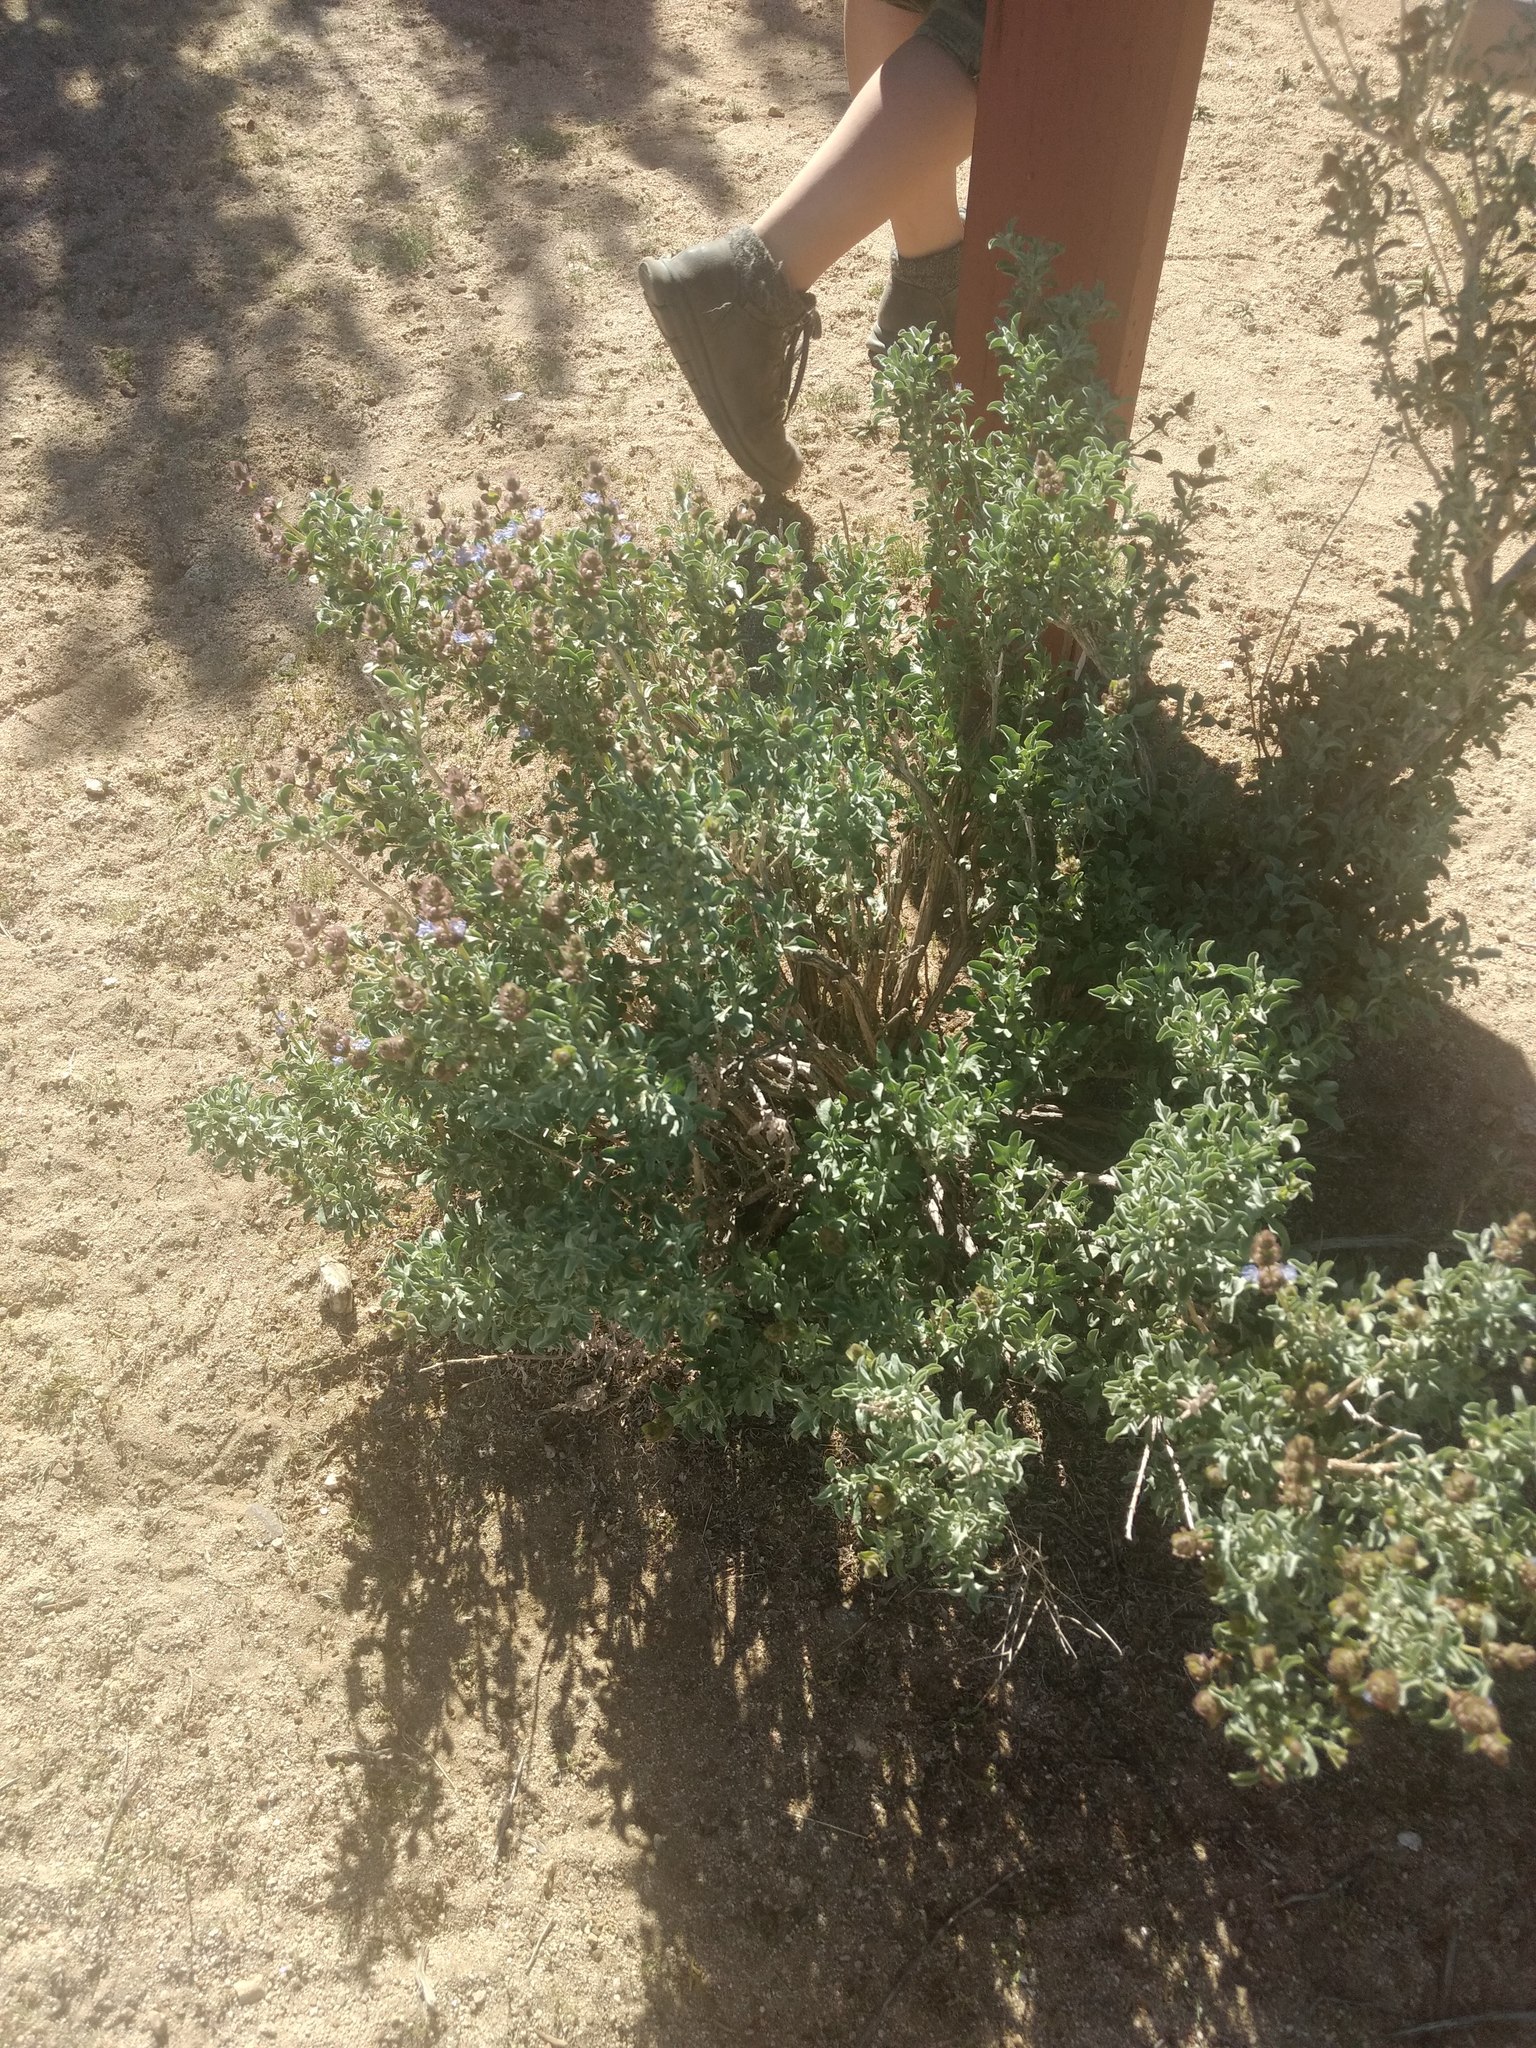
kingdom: Plantae
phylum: Tracheophyta
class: Magnoliopsida
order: Lamiales
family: Lamiaceae
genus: Salvia
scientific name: Salvia dorrii
